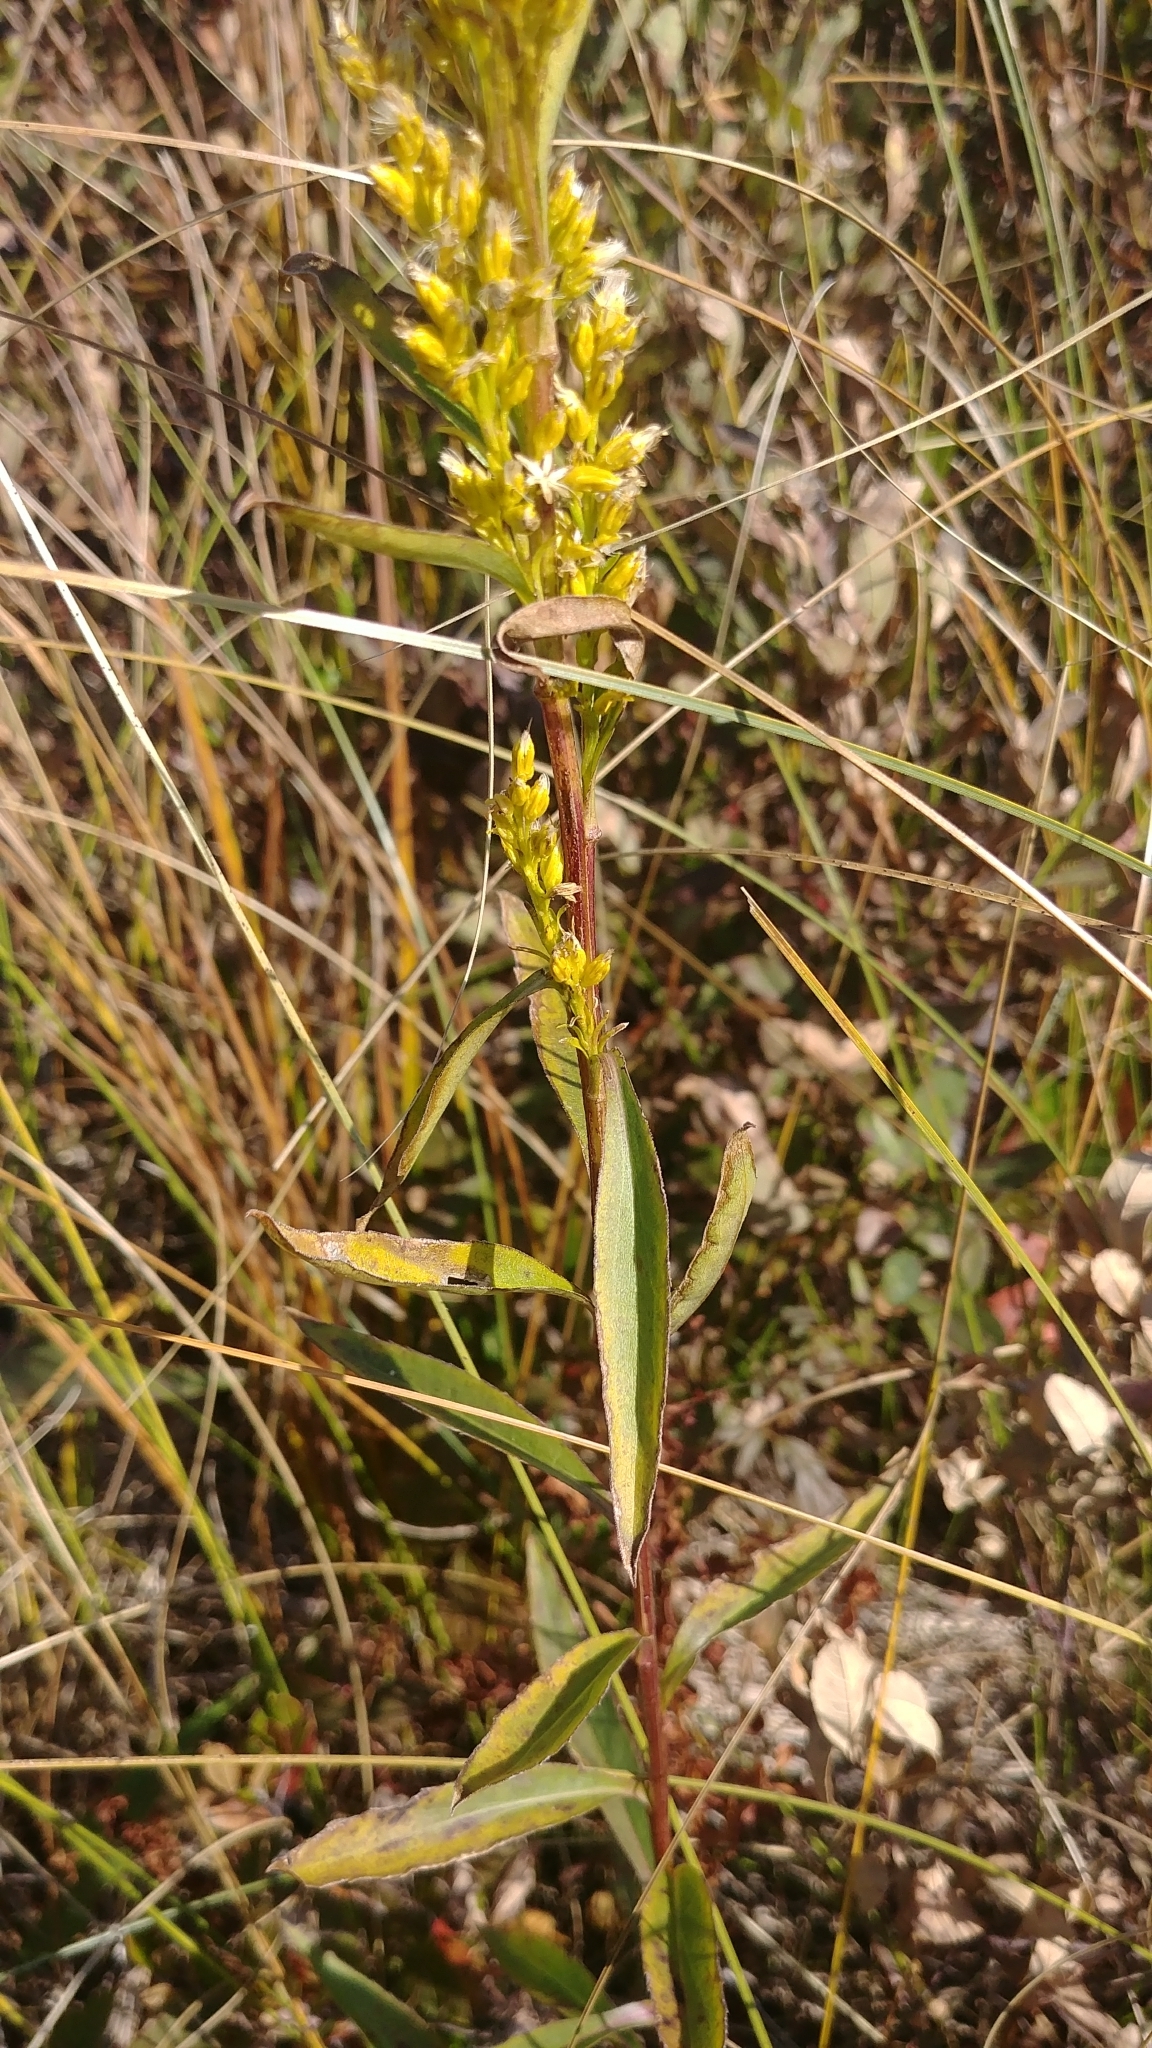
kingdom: Plantae
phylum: Tracheophyta
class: Magnoliopsida
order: Asterales
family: Asteraceae
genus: Solidago
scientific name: Solidago uliginosa
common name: Bog goldenrod
